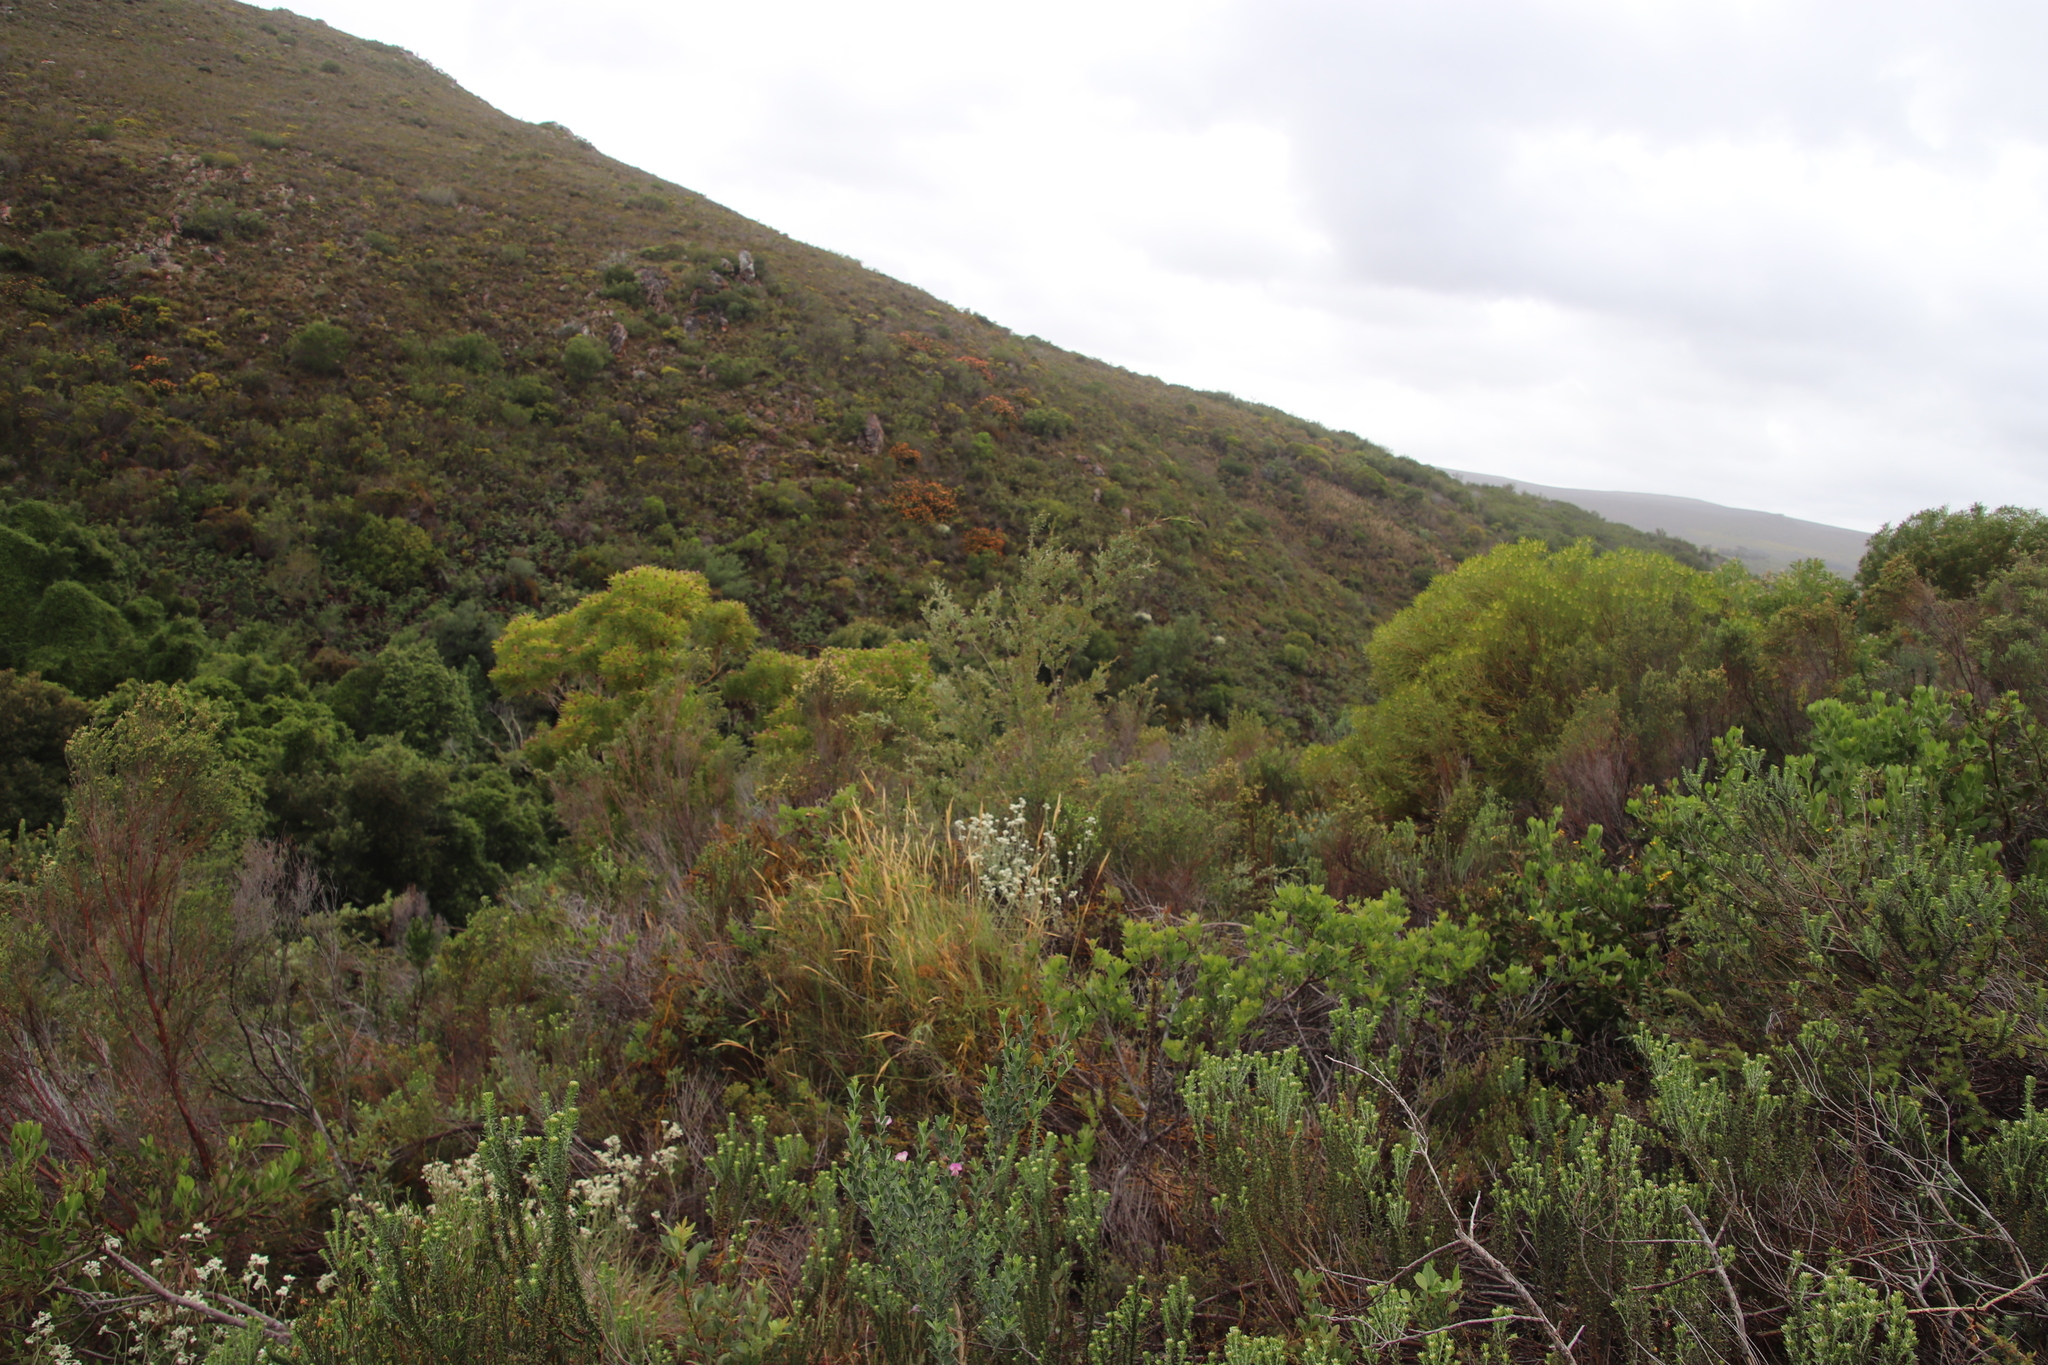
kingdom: Plantae
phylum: Tracheophyta
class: Magnoliopsida
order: Myrtales
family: Myrtaceae
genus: Leptospermum
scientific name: Leptospermum laevigatum
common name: Australian teatree
